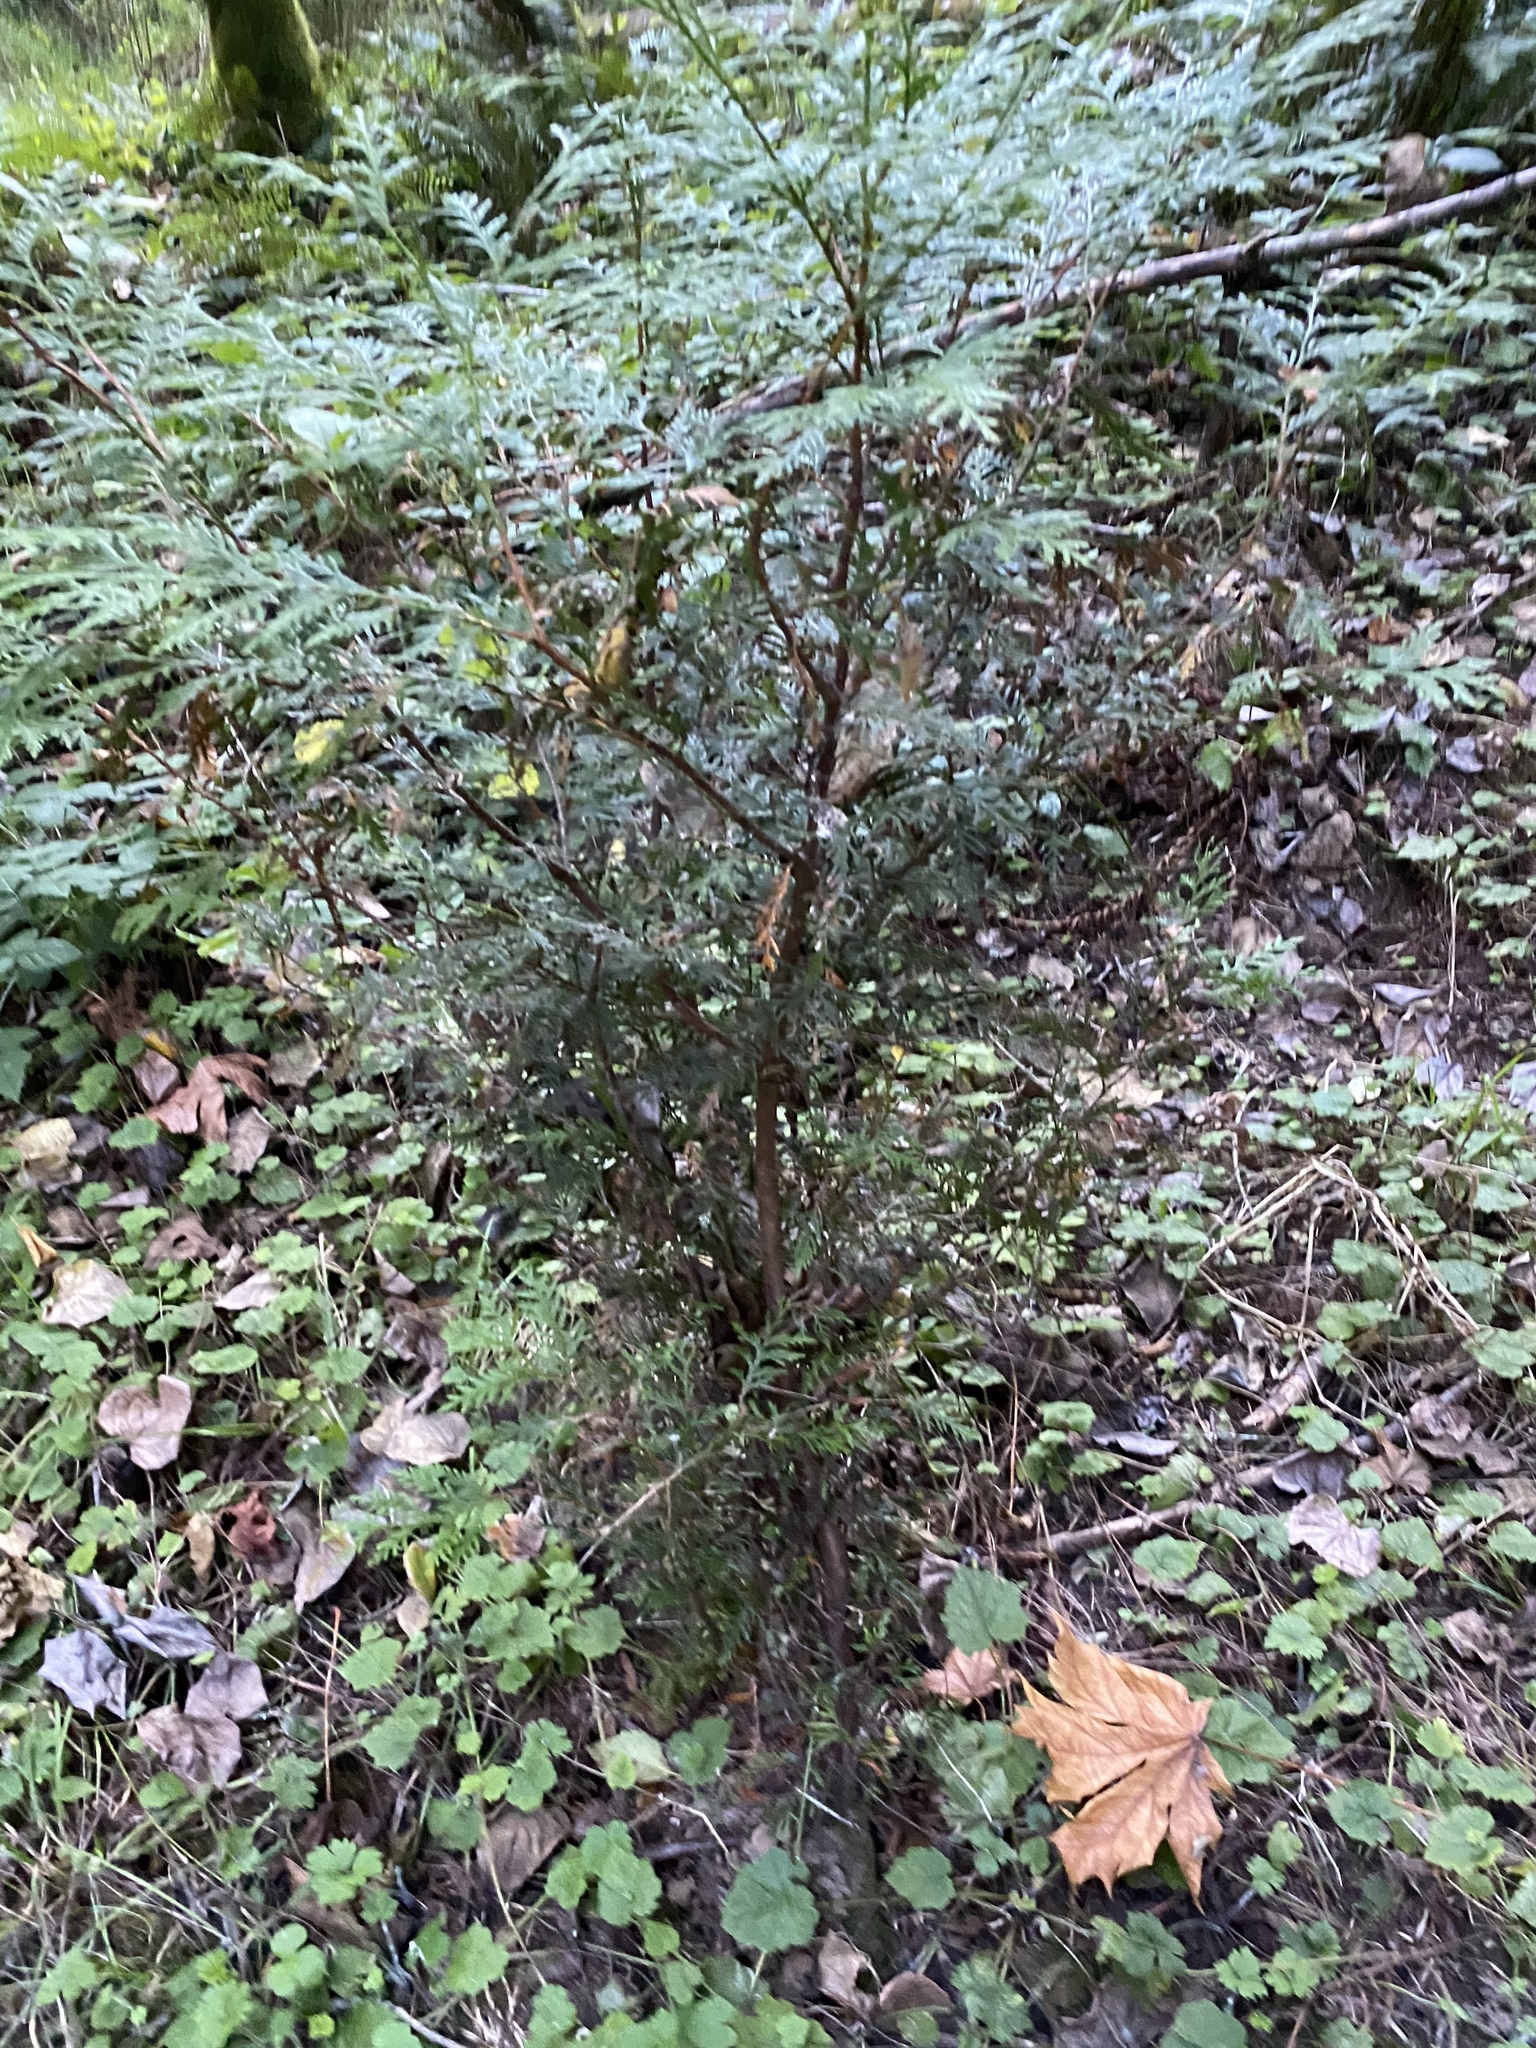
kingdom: Plantae
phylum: Tracheophyta
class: Pinopsida
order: Pinales
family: Cupressaceae
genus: Thuja
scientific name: Thuja plicata
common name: Western red-cedar
